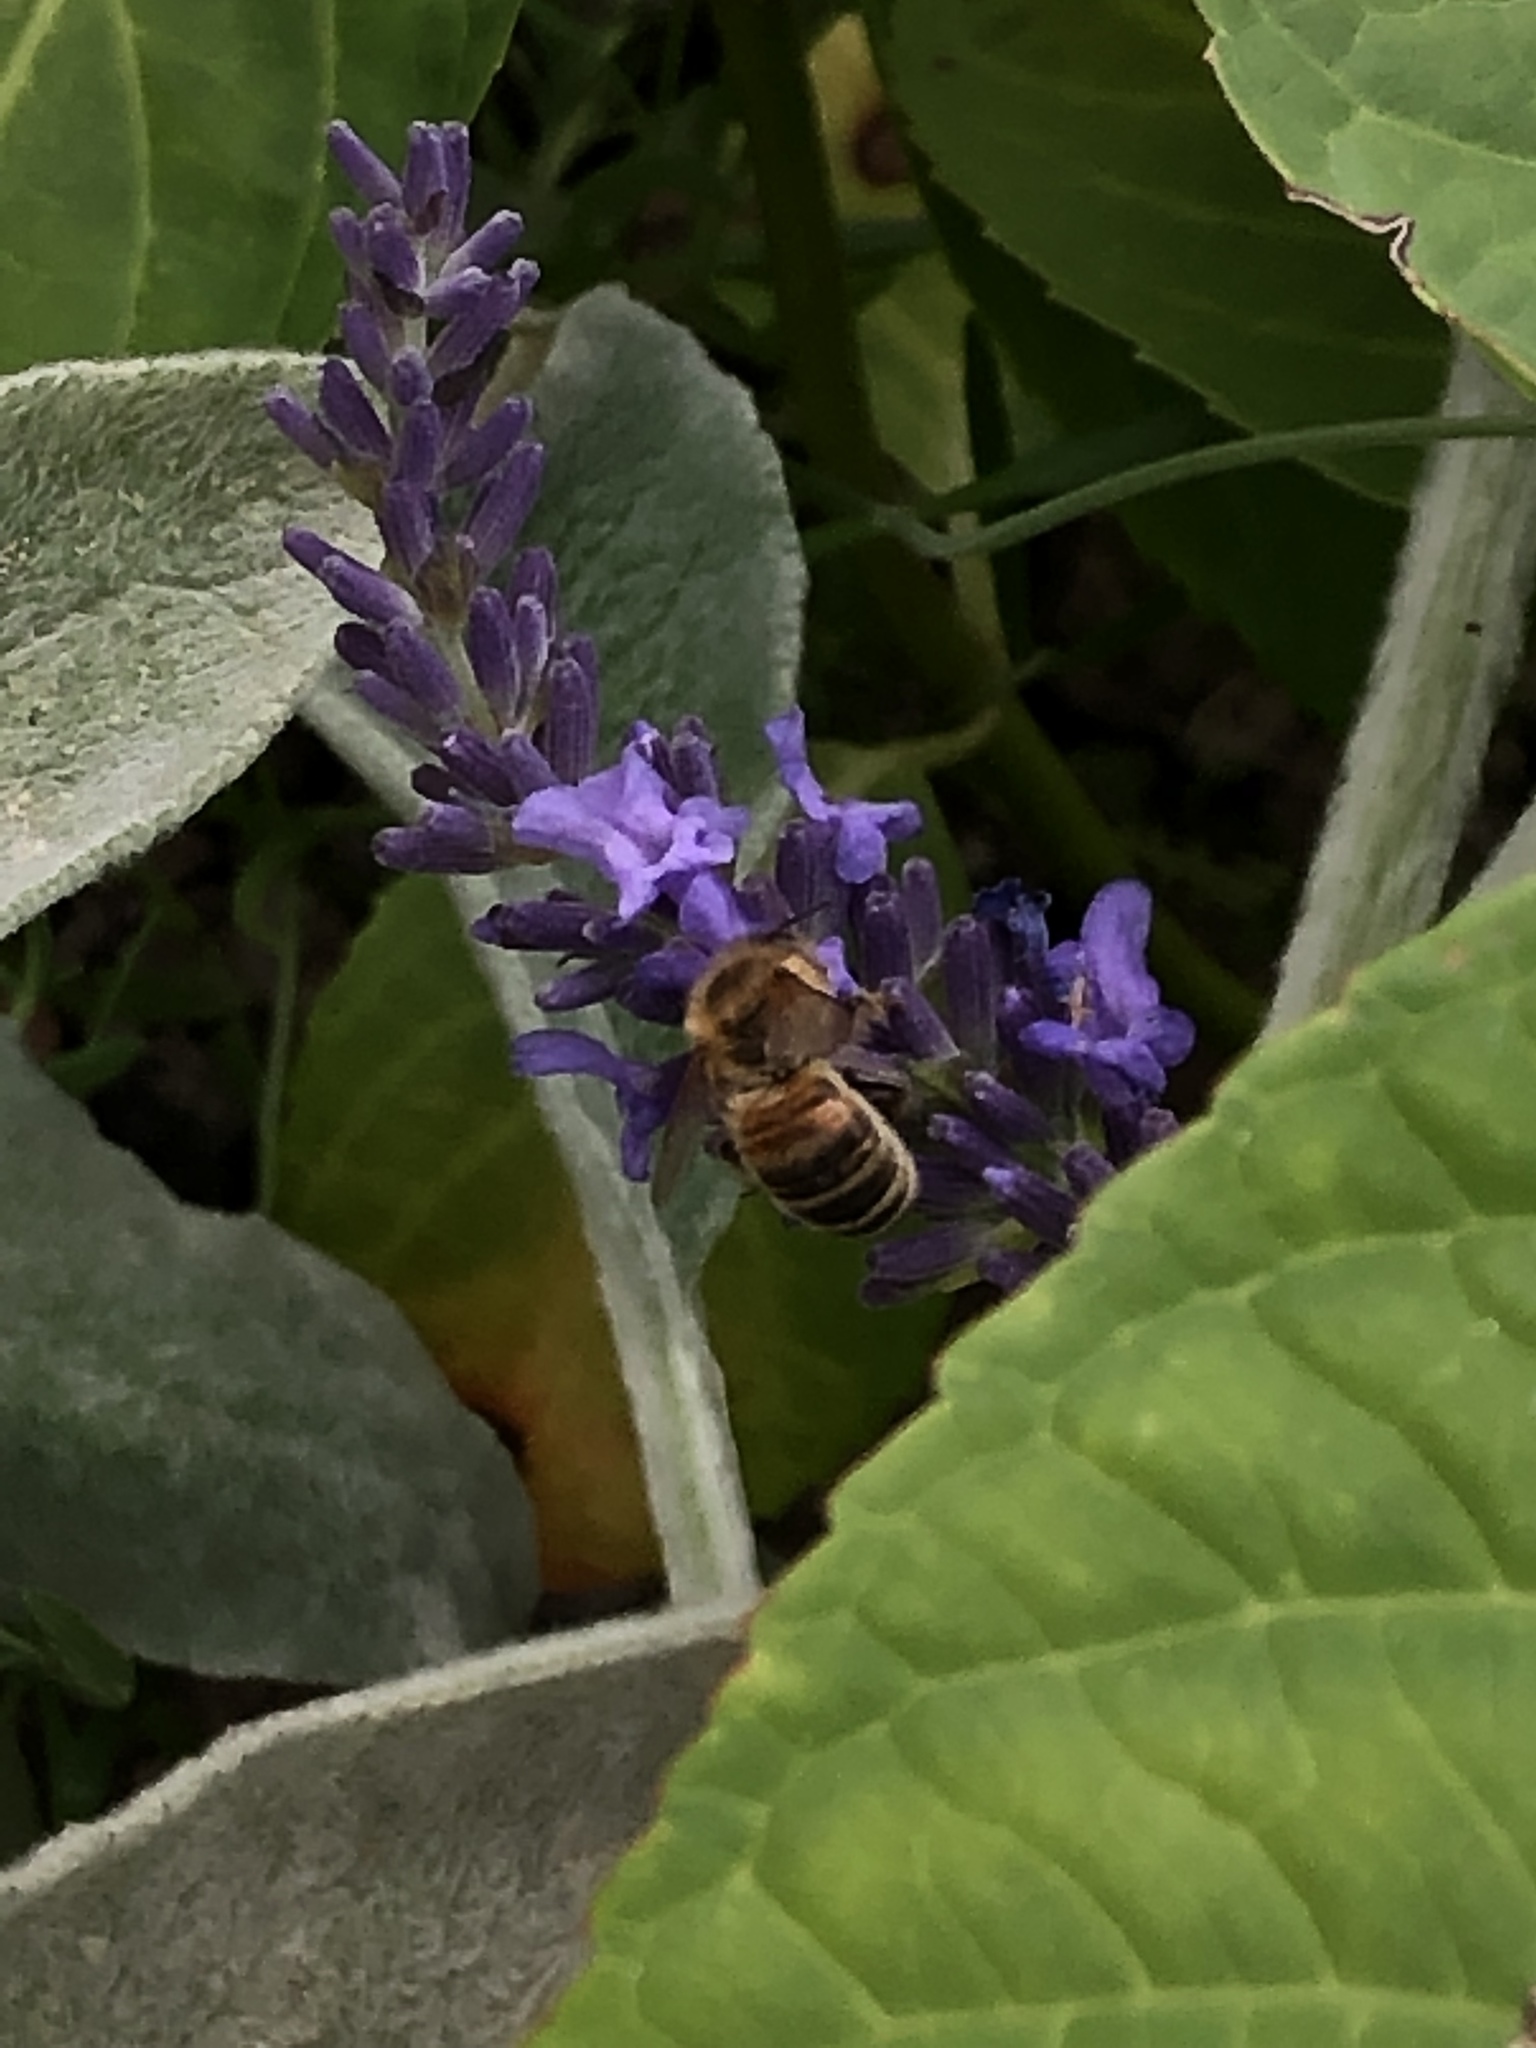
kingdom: Animalia
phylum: Arthropoda
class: Insecta
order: Hymenoptera
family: Apidae
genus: Apis
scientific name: Apis mellifera
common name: Honey bee
